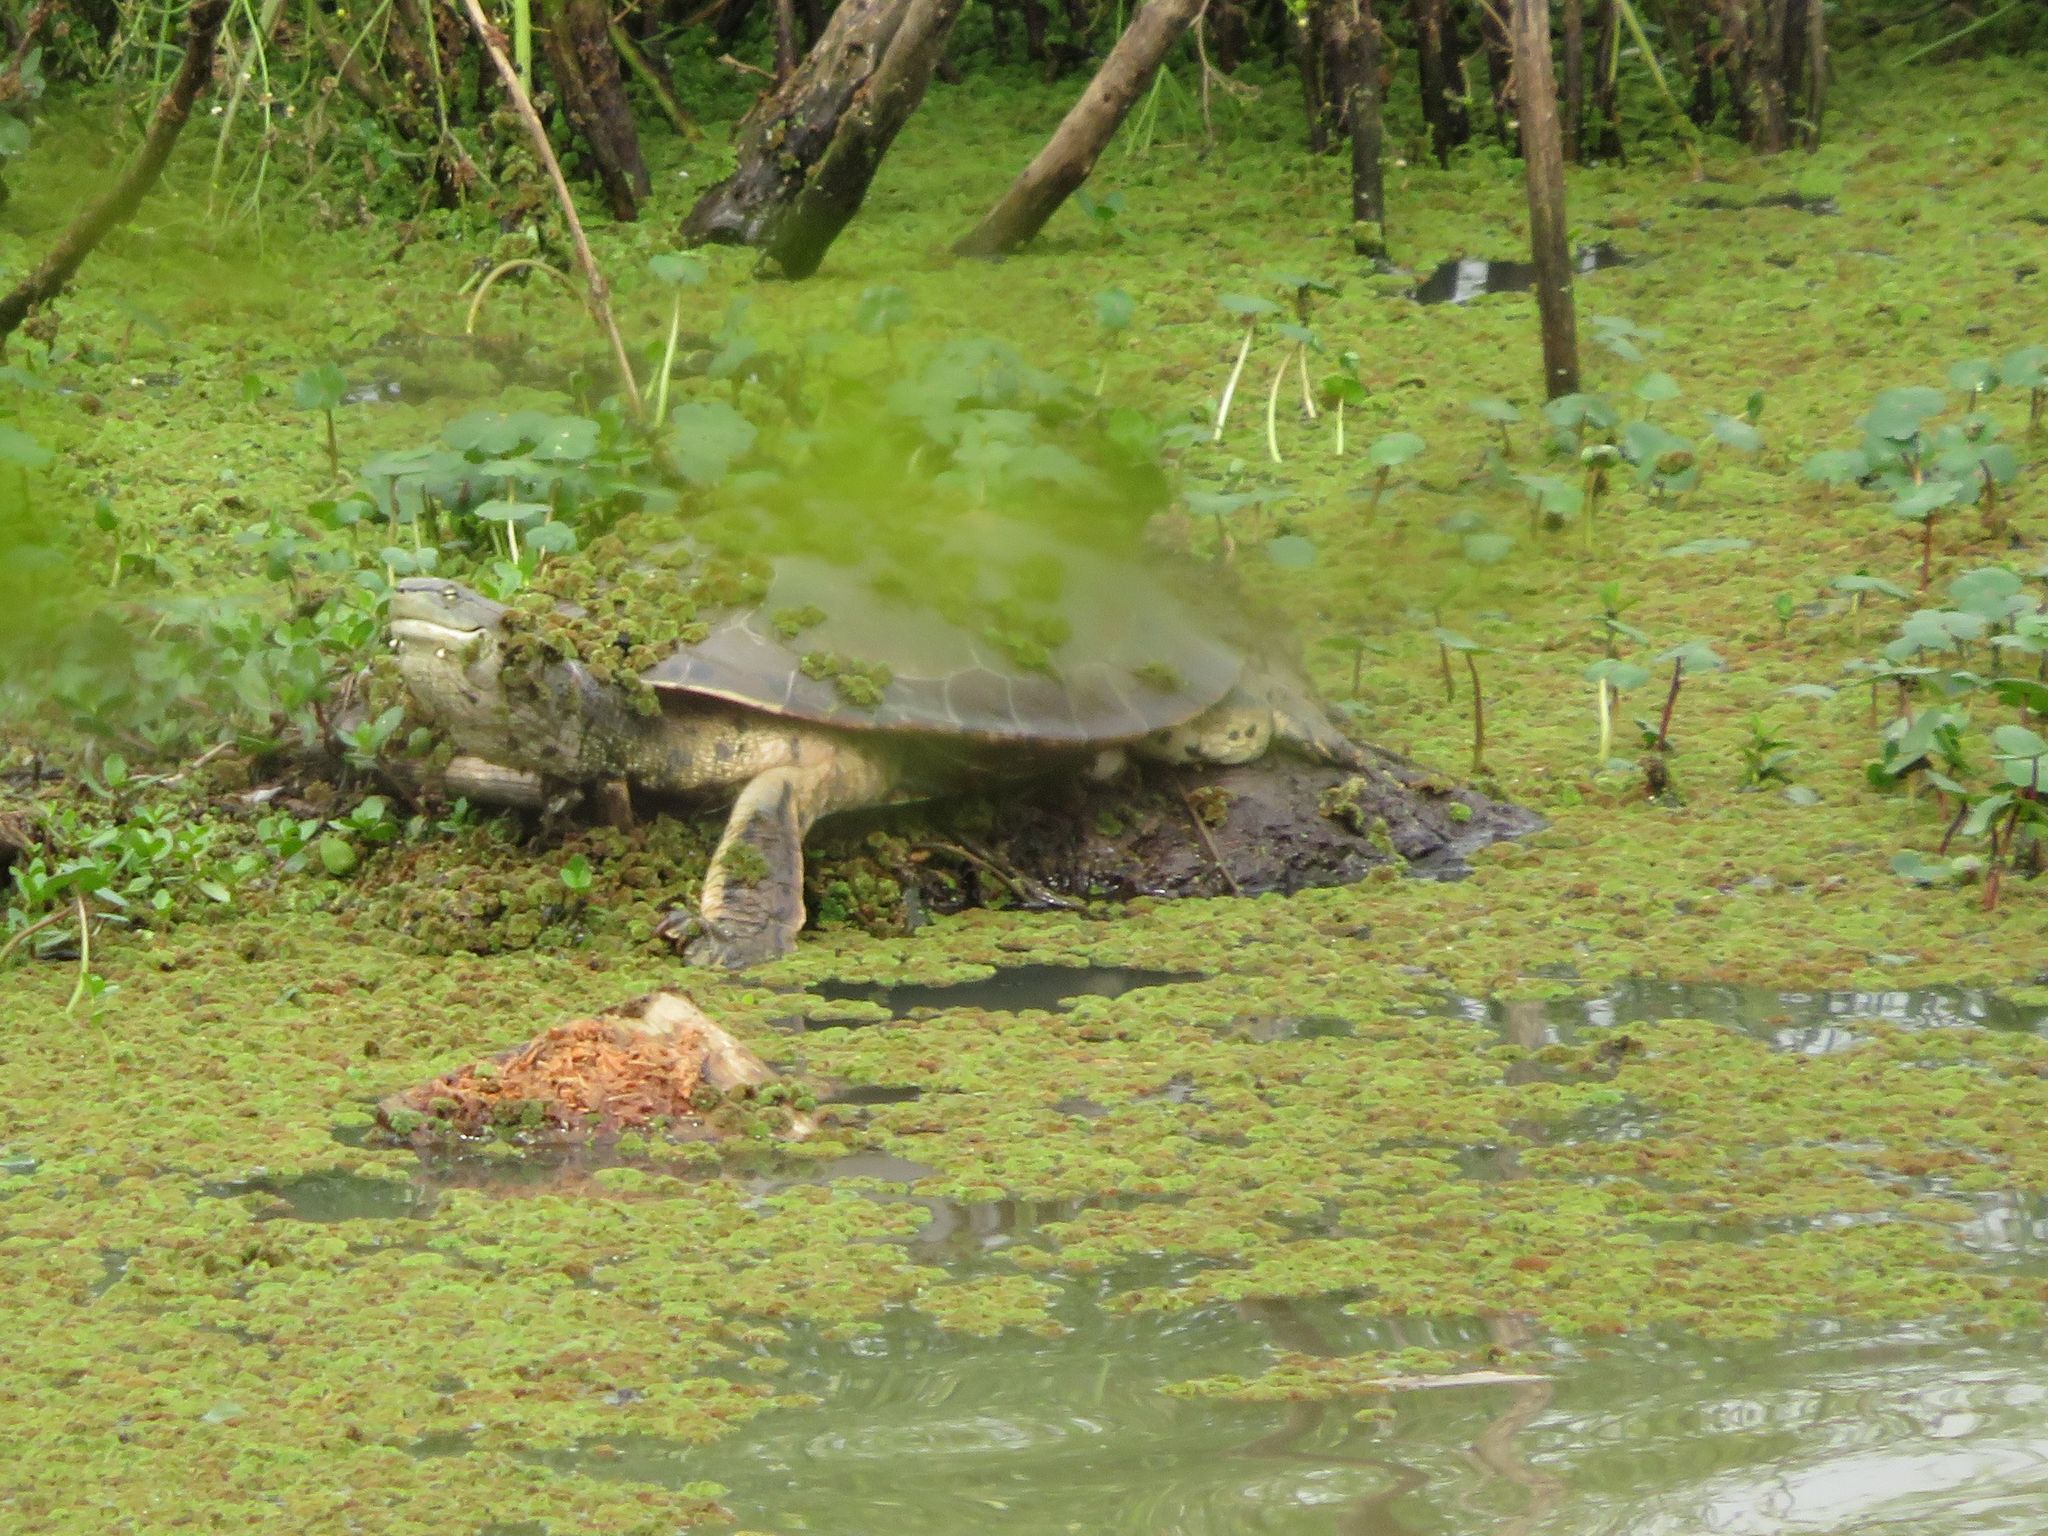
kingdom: Animalia
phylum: Chordata
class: Testudines
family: Chelidae
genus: Phrynops
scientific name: Phrynops hilarii
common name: Side-necked turtle of saint hillaire
